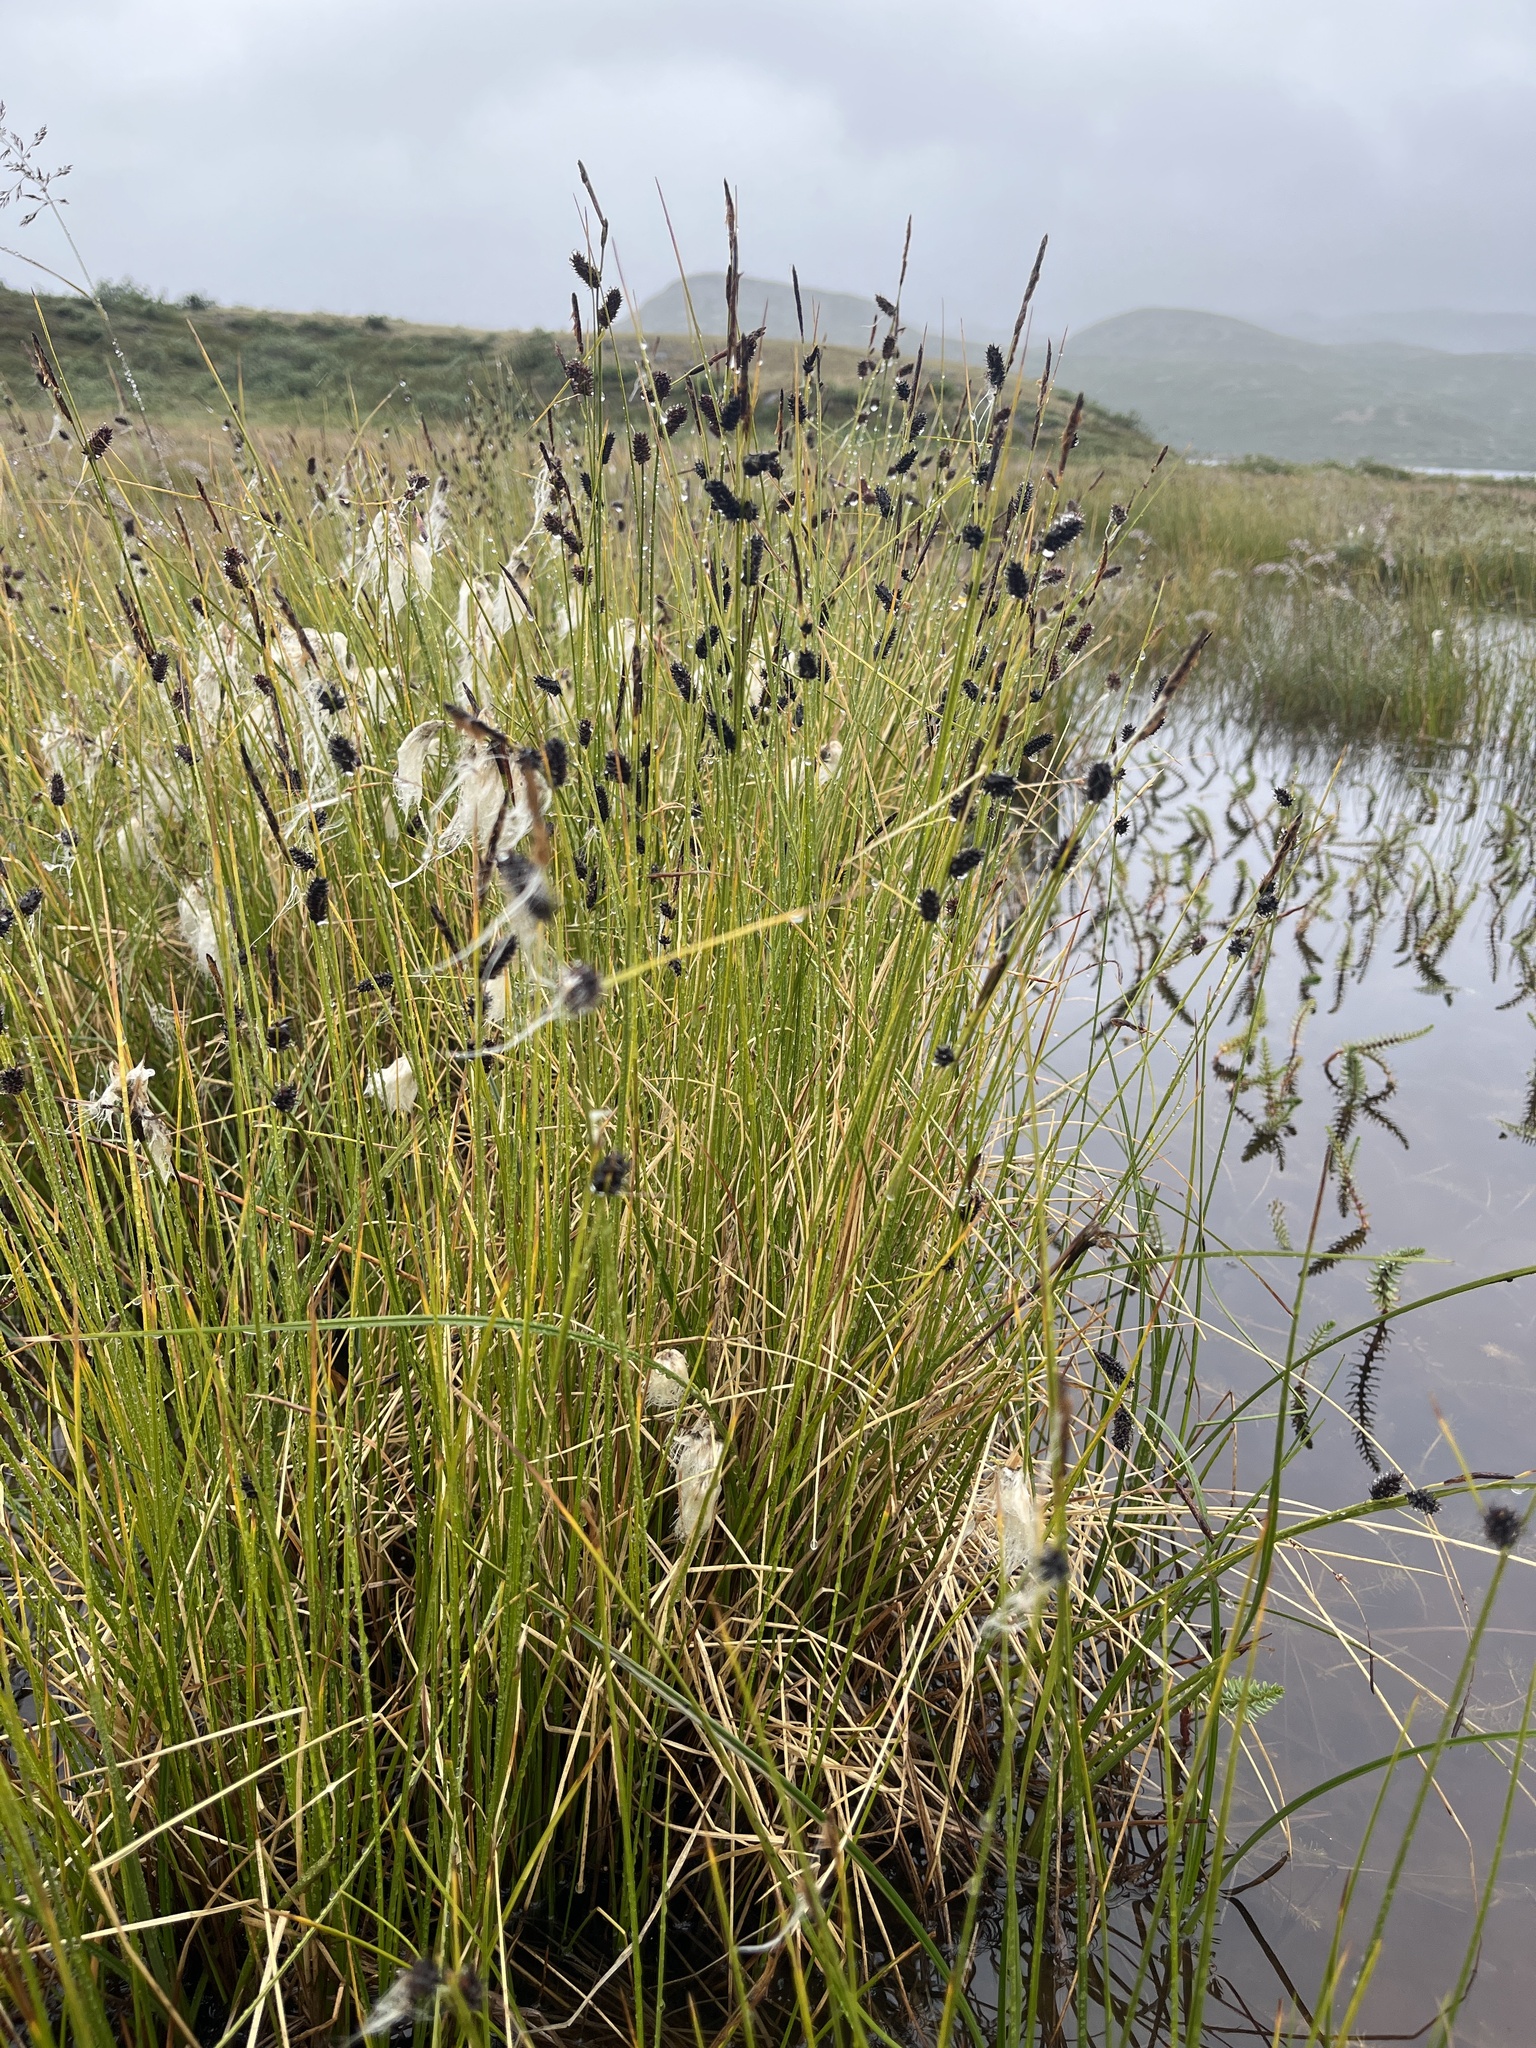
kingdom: Plantae
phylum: Tracheophyta
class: Liliopsida
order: Poales
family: Cyperaceae
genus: Carex
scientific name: Carex saxatilis
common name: Russet sedge
